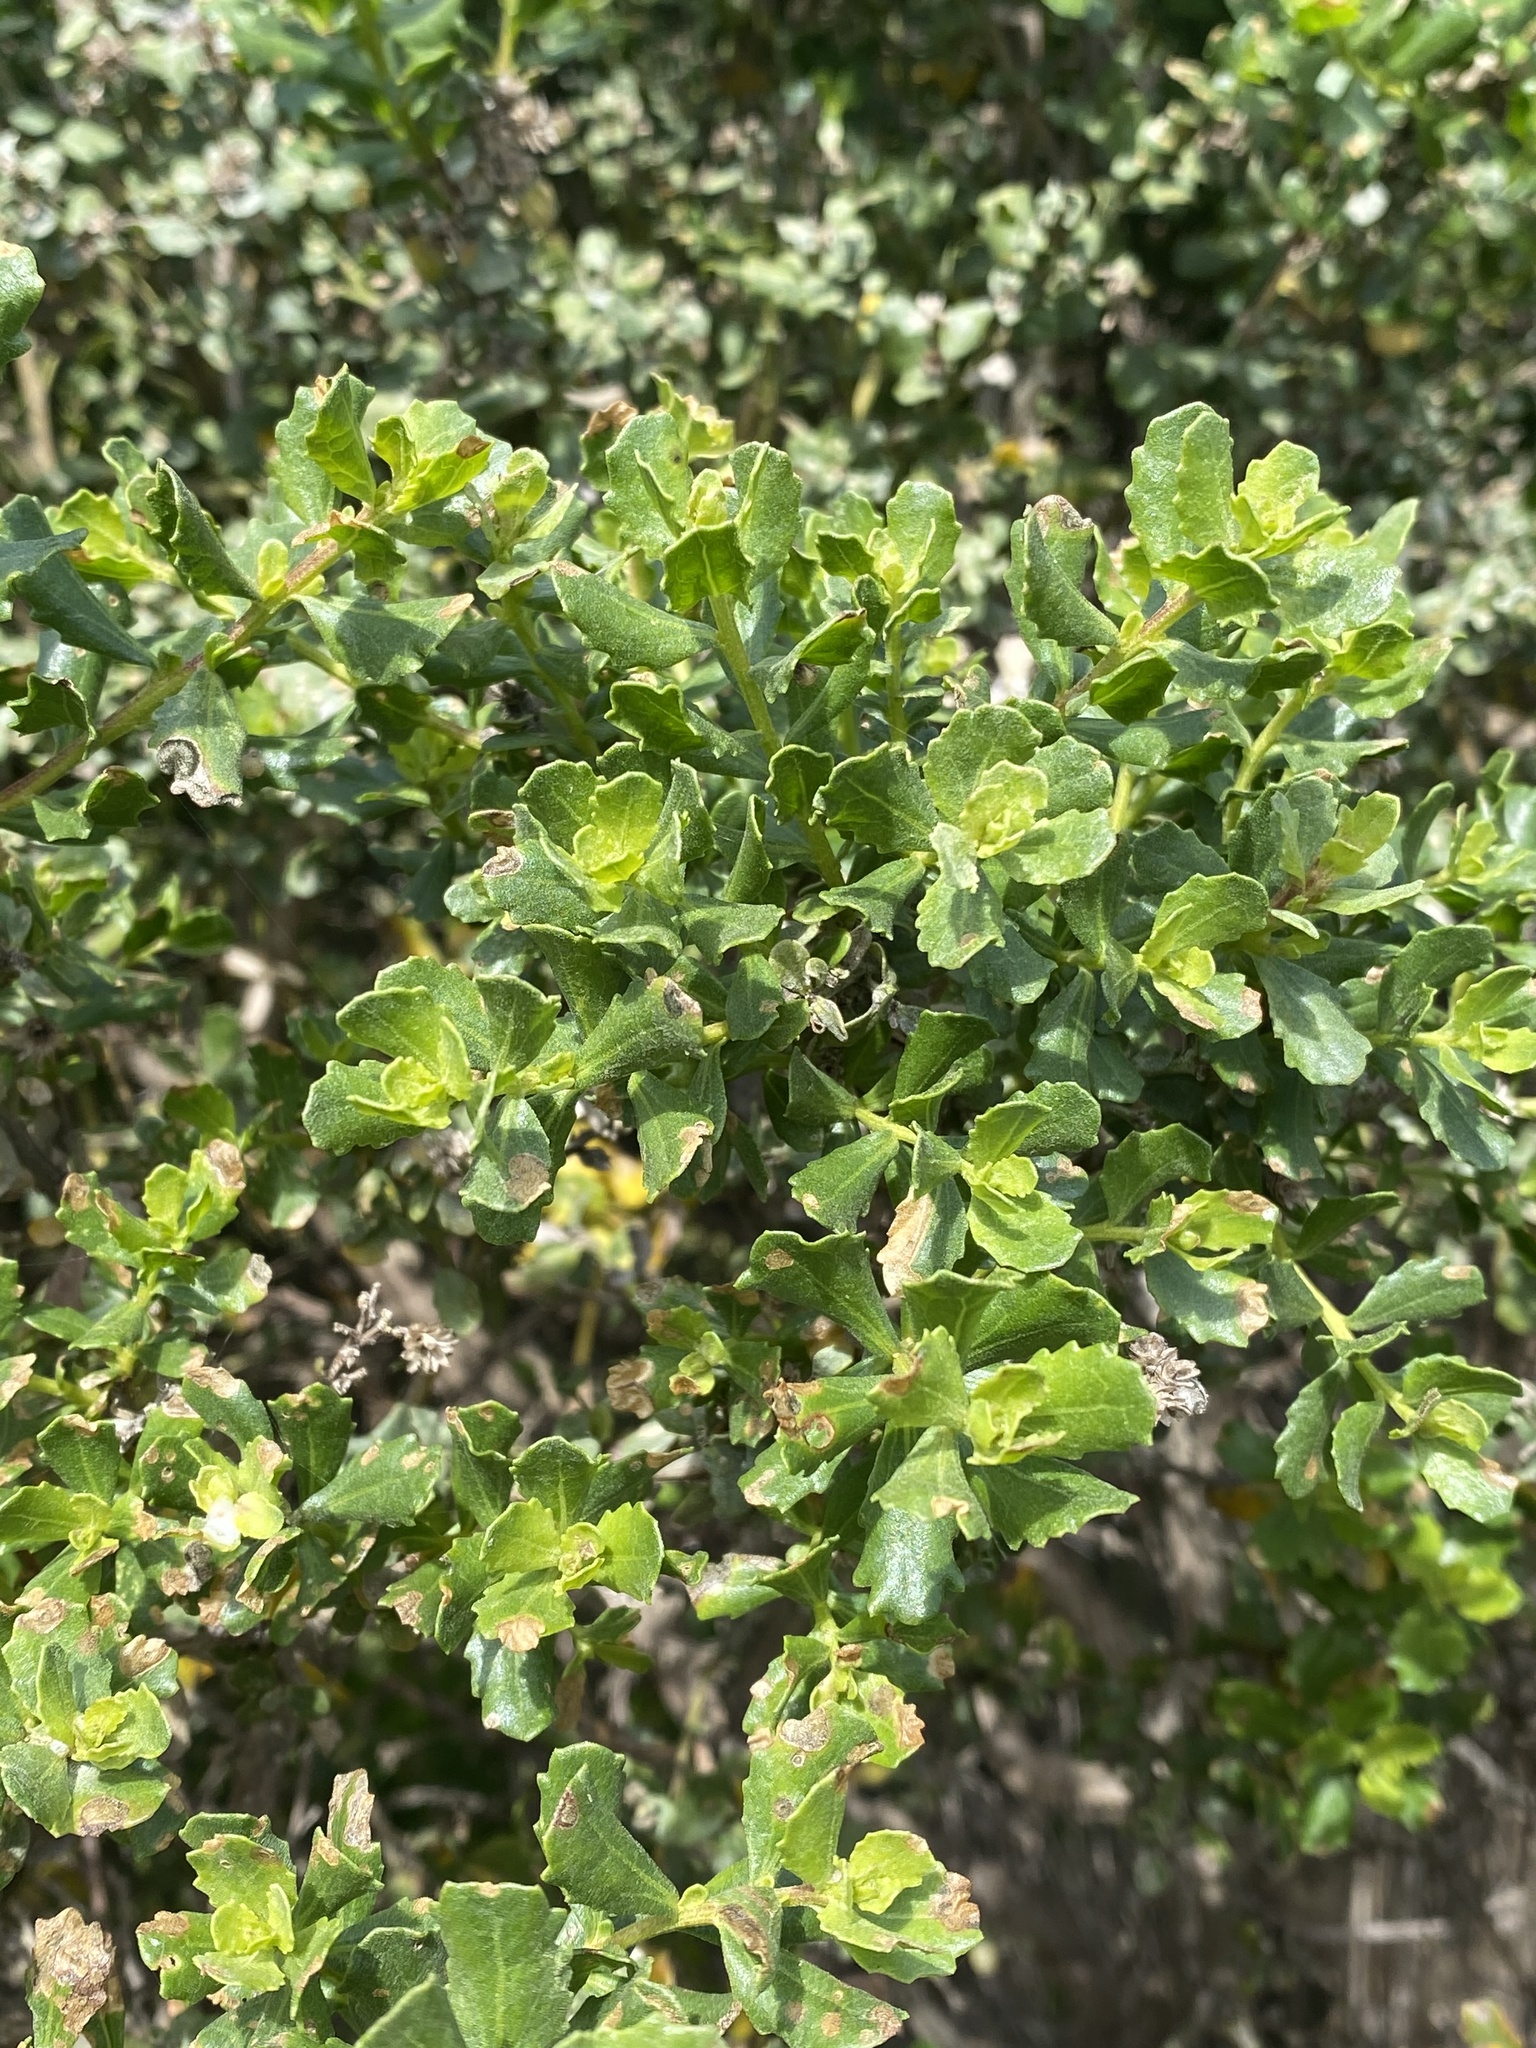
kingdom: Plantae
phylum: Tracheophyta
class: Magnoliopsida
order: Asterales
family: Asteraceae
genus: Baccharis
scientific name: Baccharis pilularis
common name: Coyotebrush
